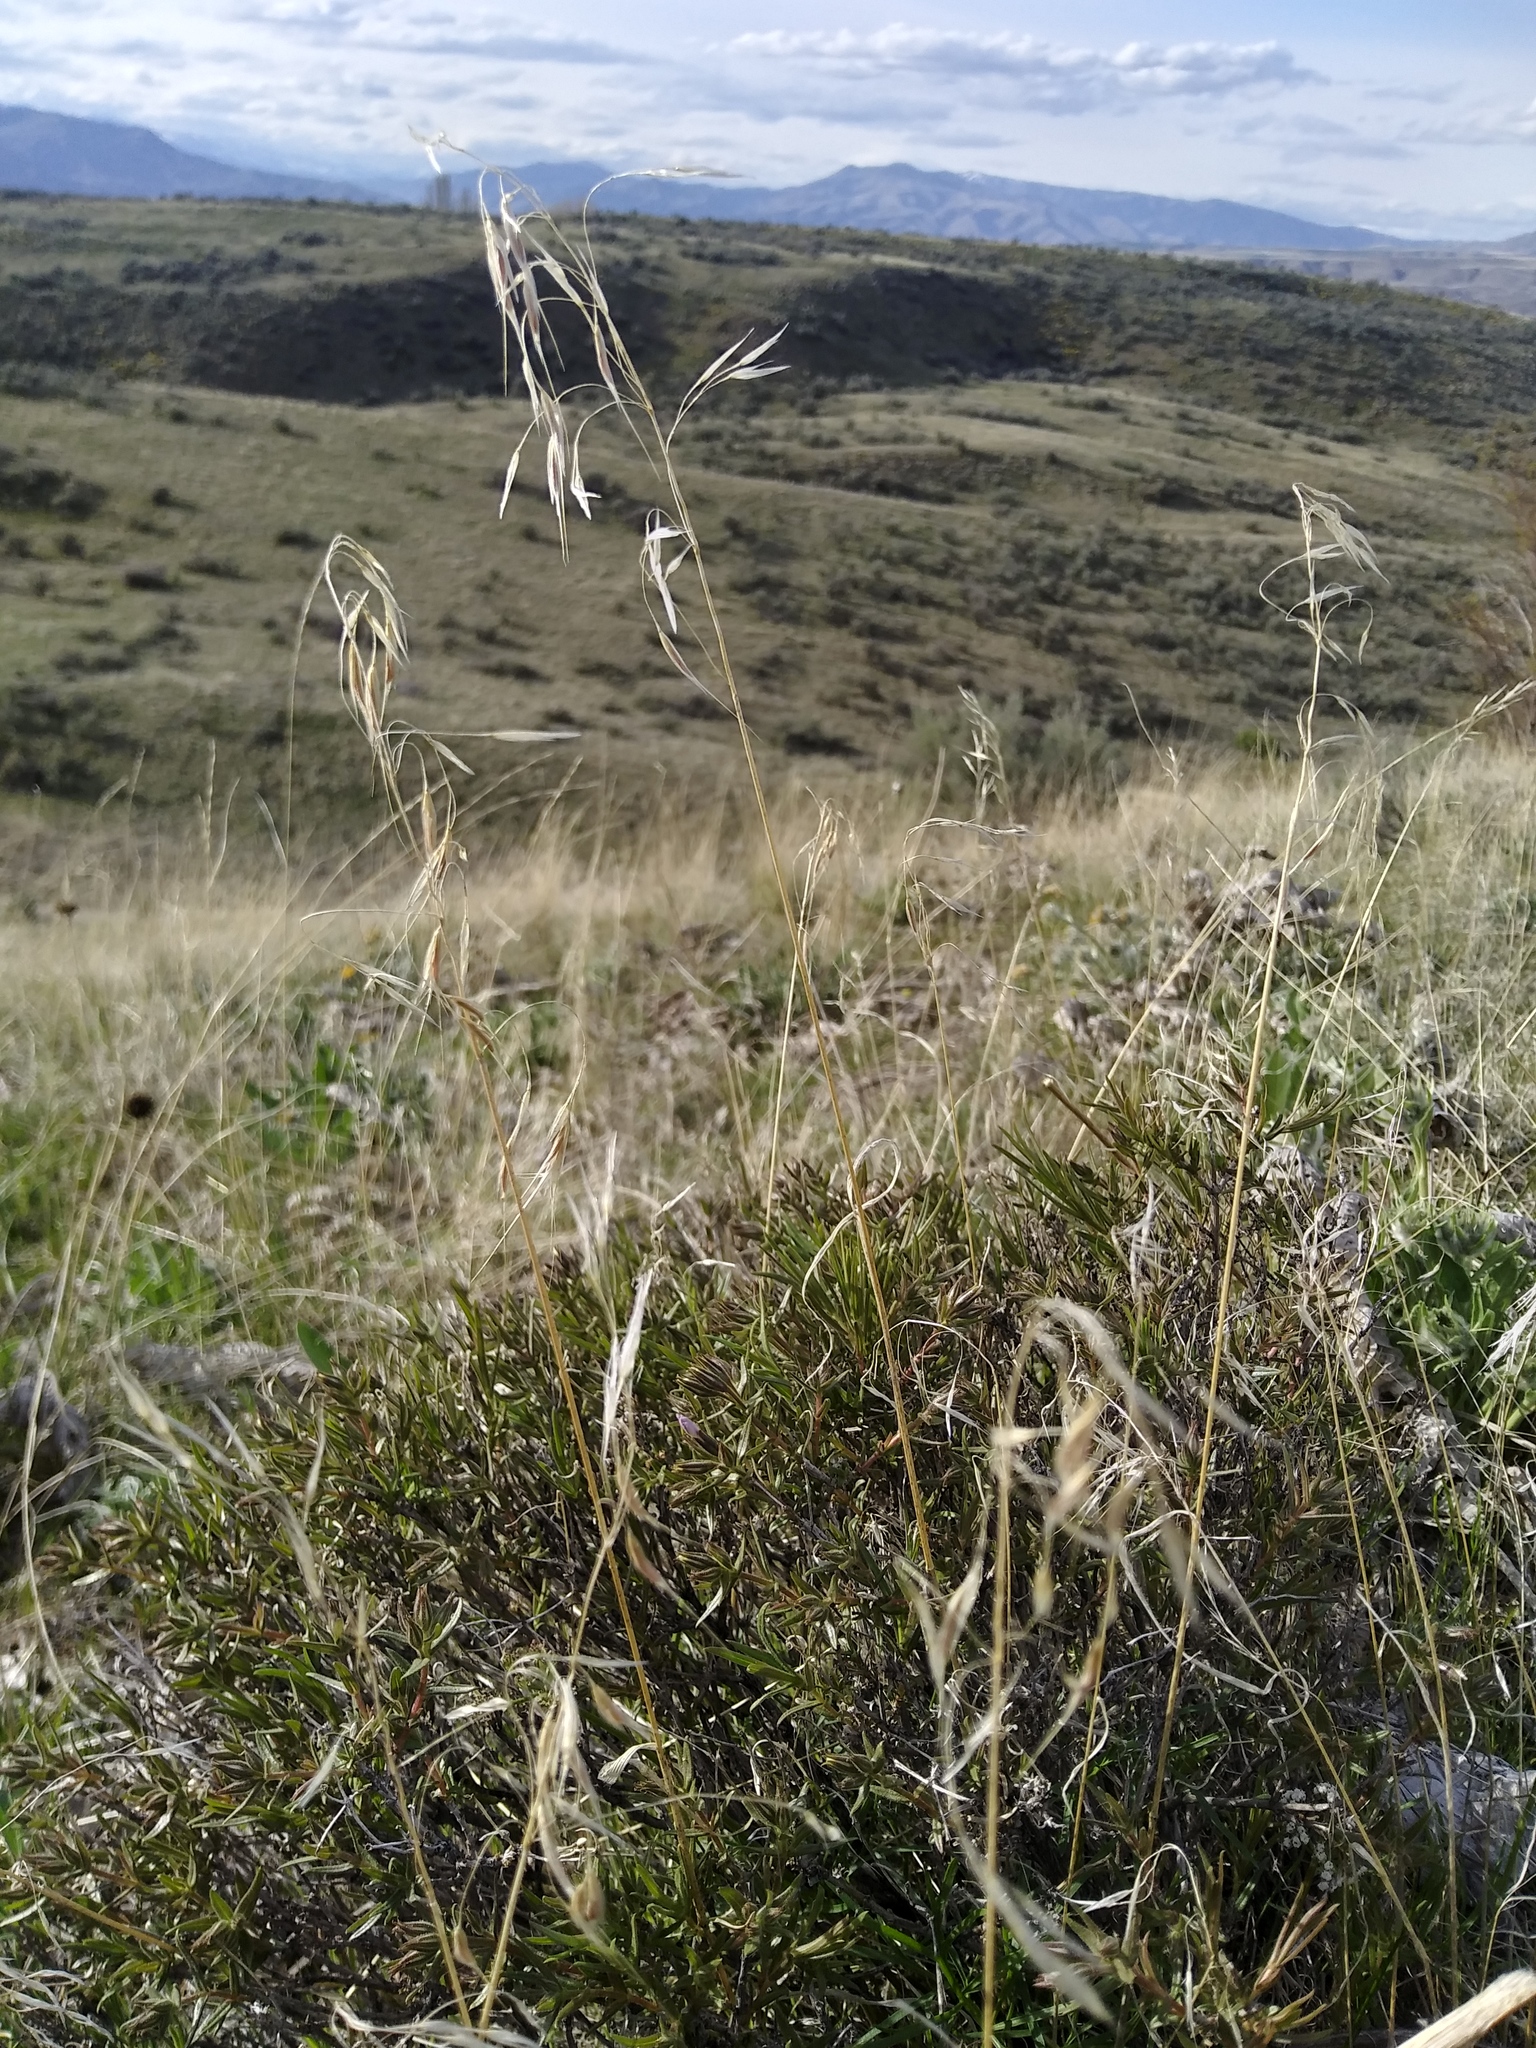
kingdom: Plantae
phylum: Tracheophyta
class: Liliopsida
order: Poales
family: Poaceae
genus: Bromus
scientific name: Bromus tectorum
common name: Cheatgrass
